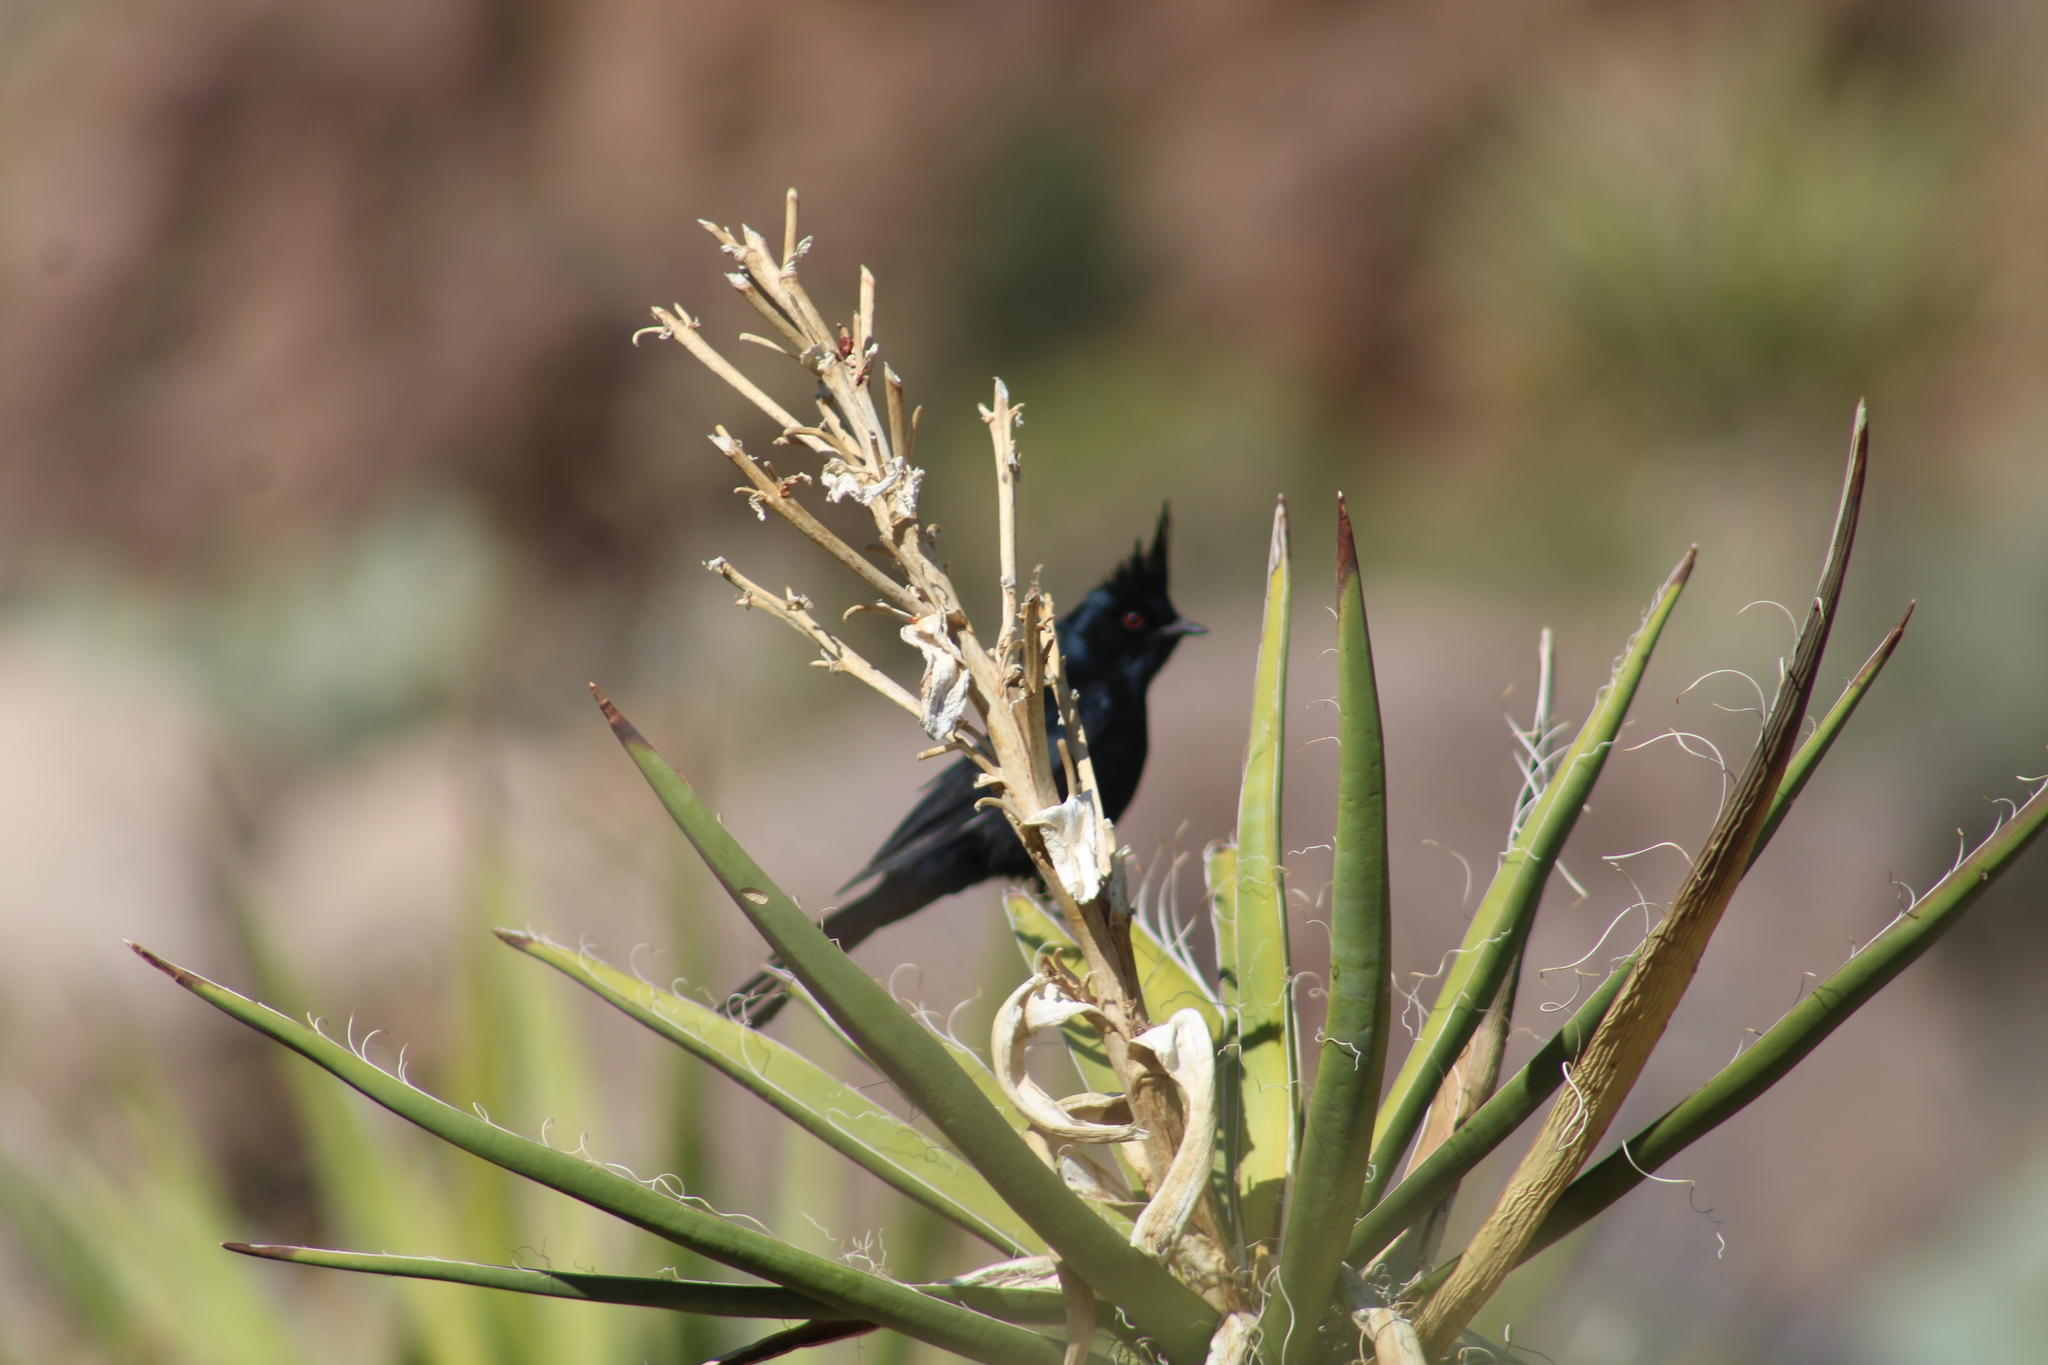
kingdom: Animalia
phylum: Chordata
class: Aves
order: Passeriformes
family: Ptilogonatidae
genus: Phainopepla
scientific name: Phainopepla nitens
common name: Phainopepla
